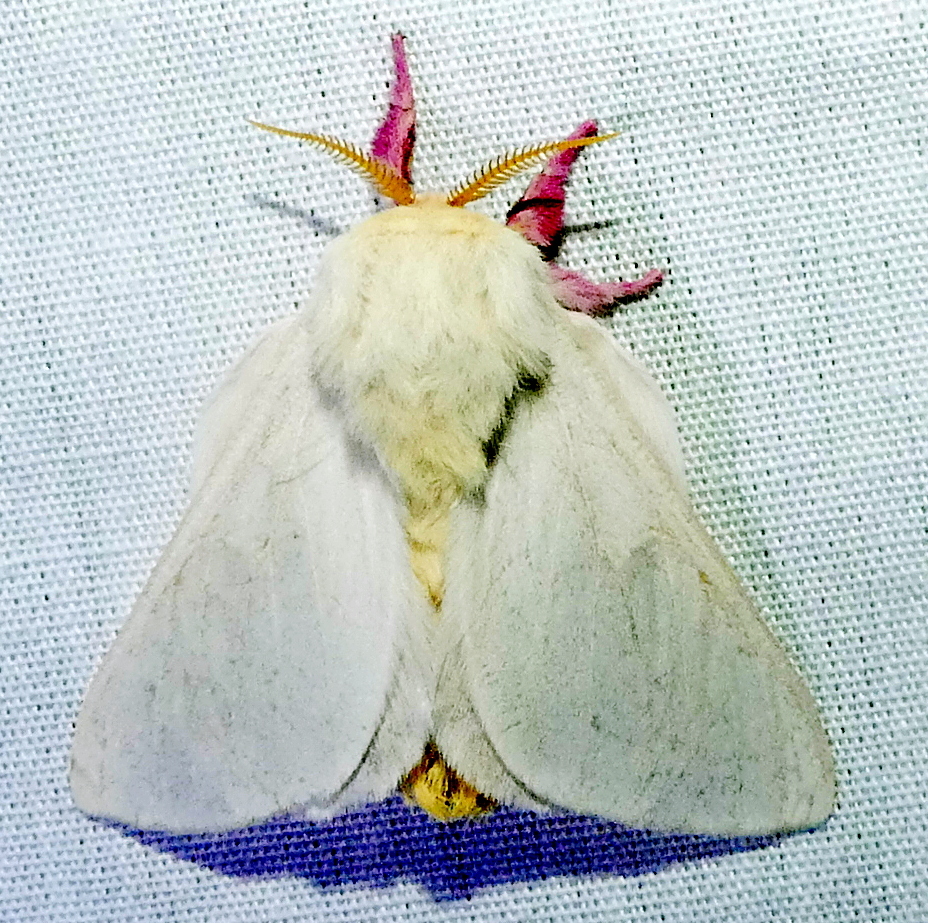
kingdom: Animalia
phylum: Arthropoda
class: Insecta
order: Lepidoptera
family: Saturniidae
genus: Dryocampa
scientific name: Dryocampa rubicunda
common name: Rosy maple moth
